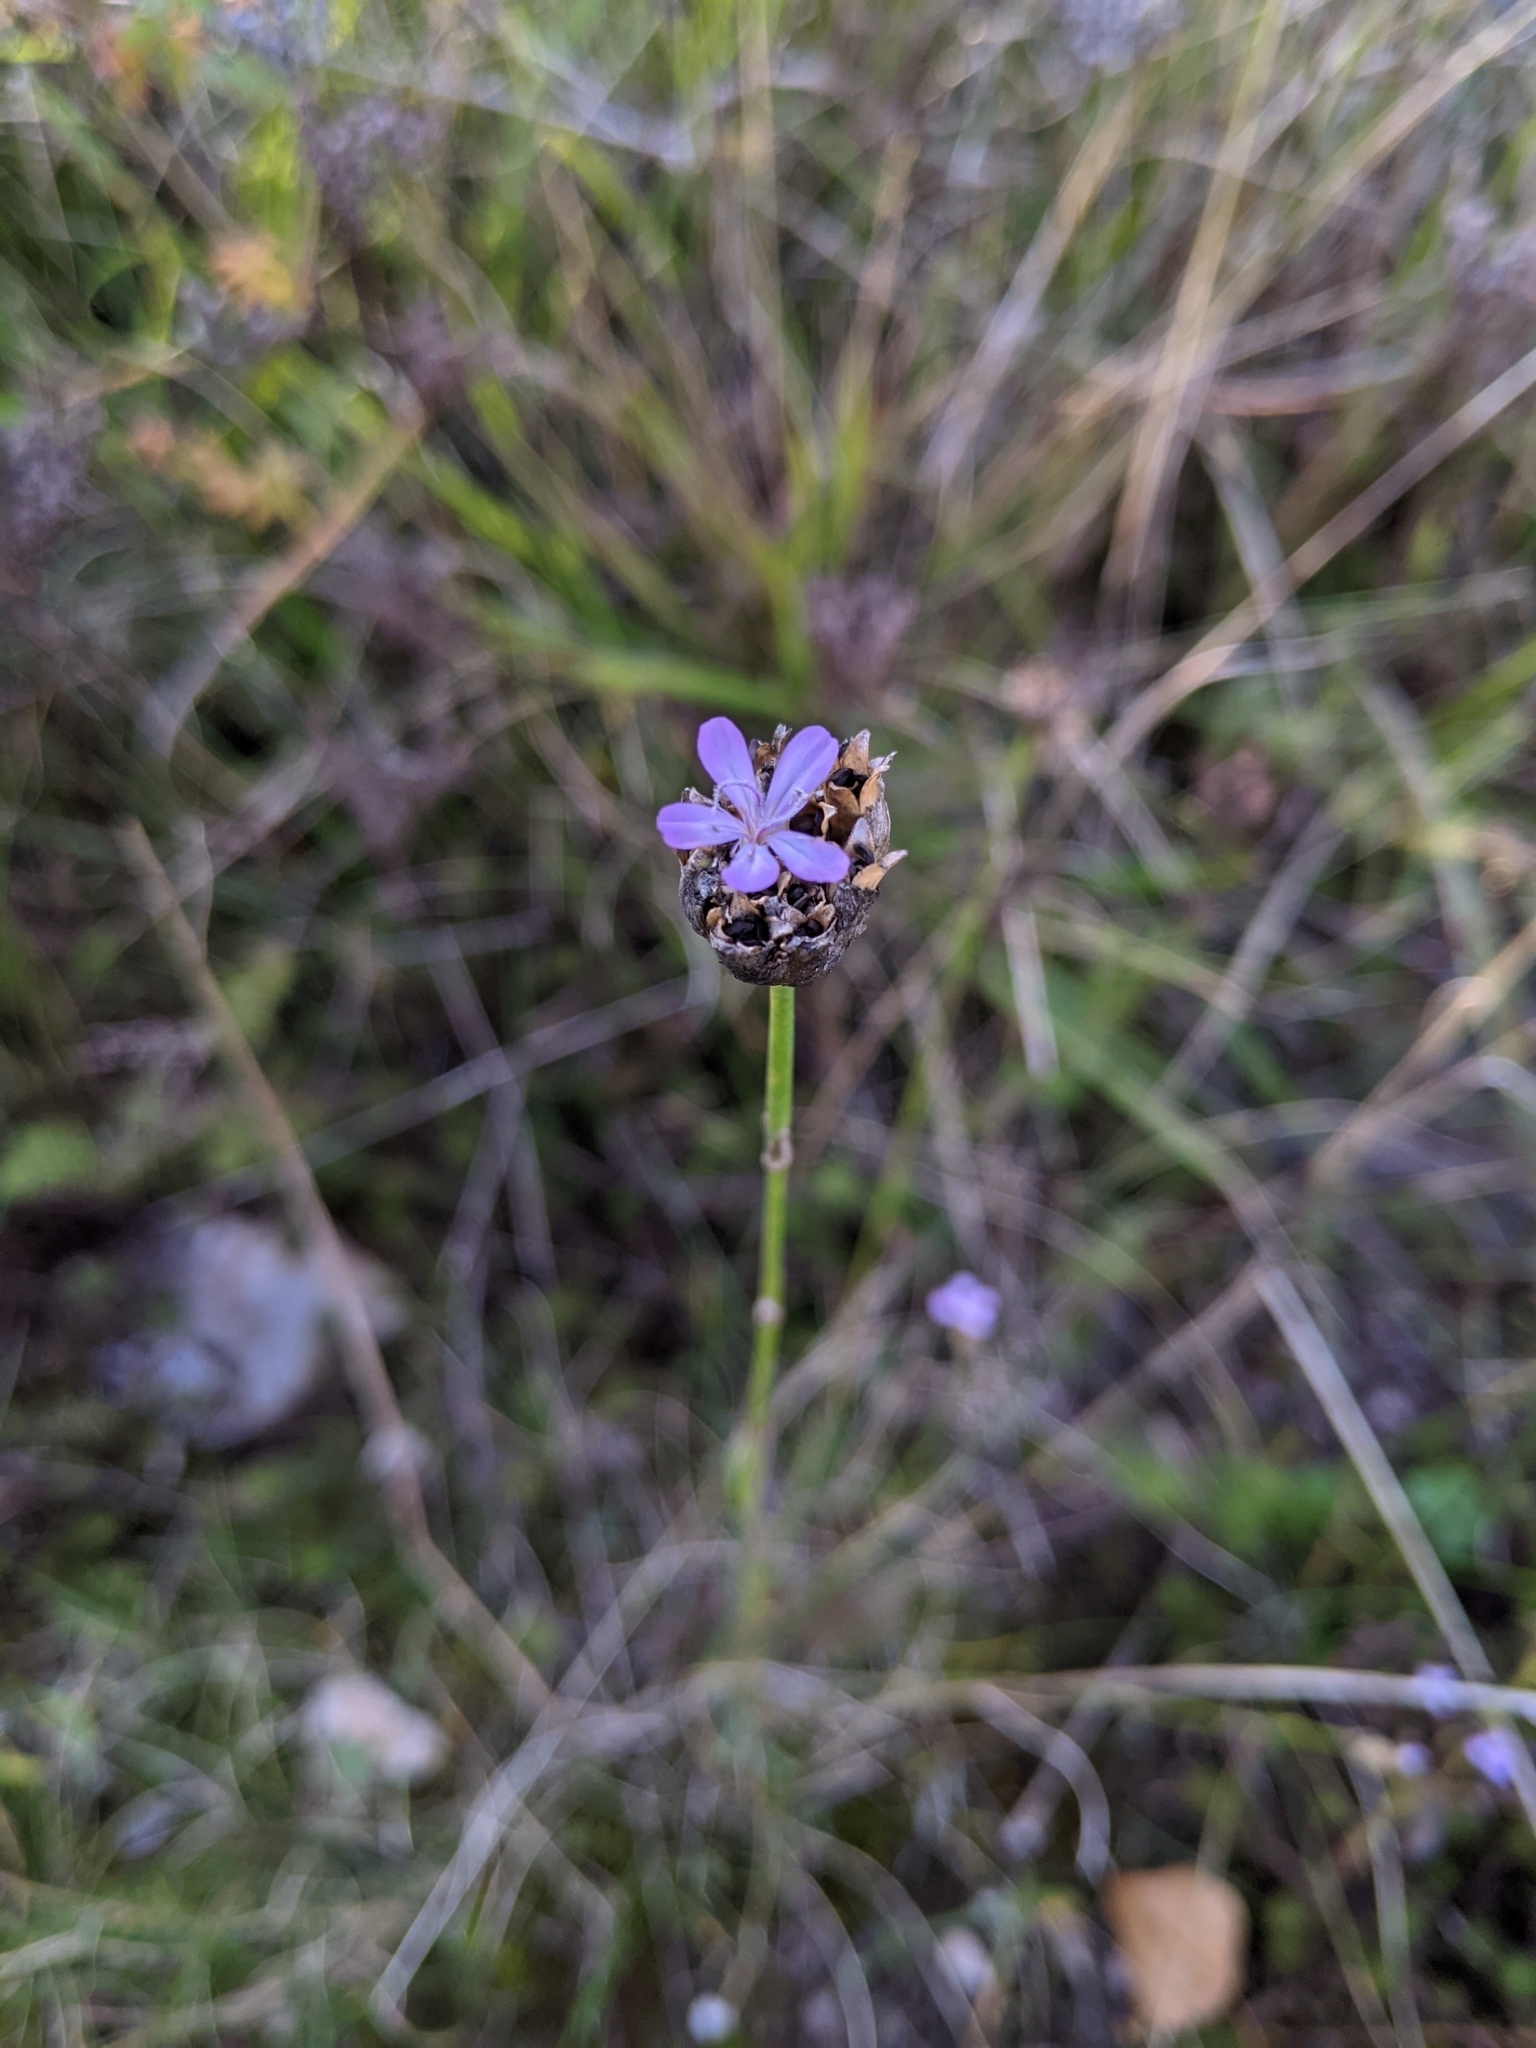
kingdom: Plantae
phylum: Tracheophyta
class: Magnoliopsida
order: Caryophyllales
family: Caryophyllaceae
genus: Petrorhagia
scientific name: Petrorhagia prolifera
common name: Proliferous pink
